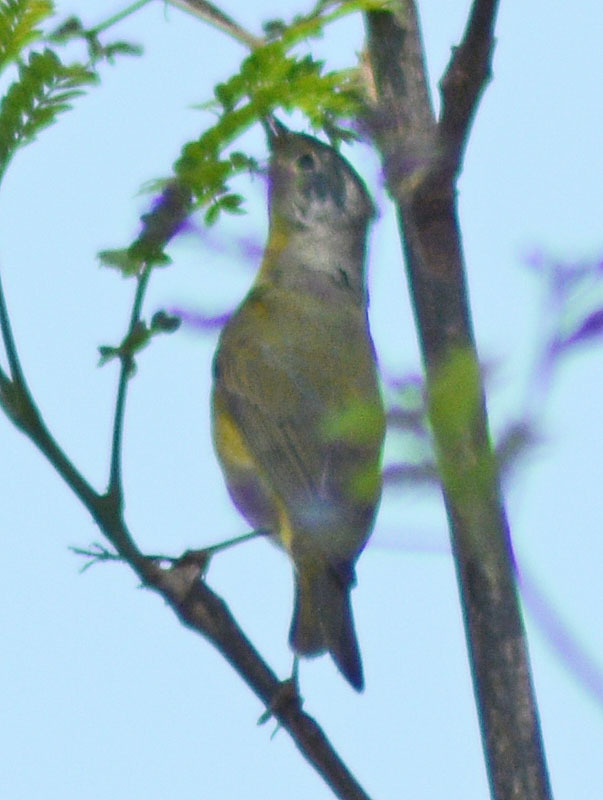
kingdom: Animalia
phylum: Chordata
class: Aves
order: Passeriformes
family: Parulidae
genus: Leiothlypis
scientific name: Leiothlypis ruficapilla
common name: Nashville warbler
